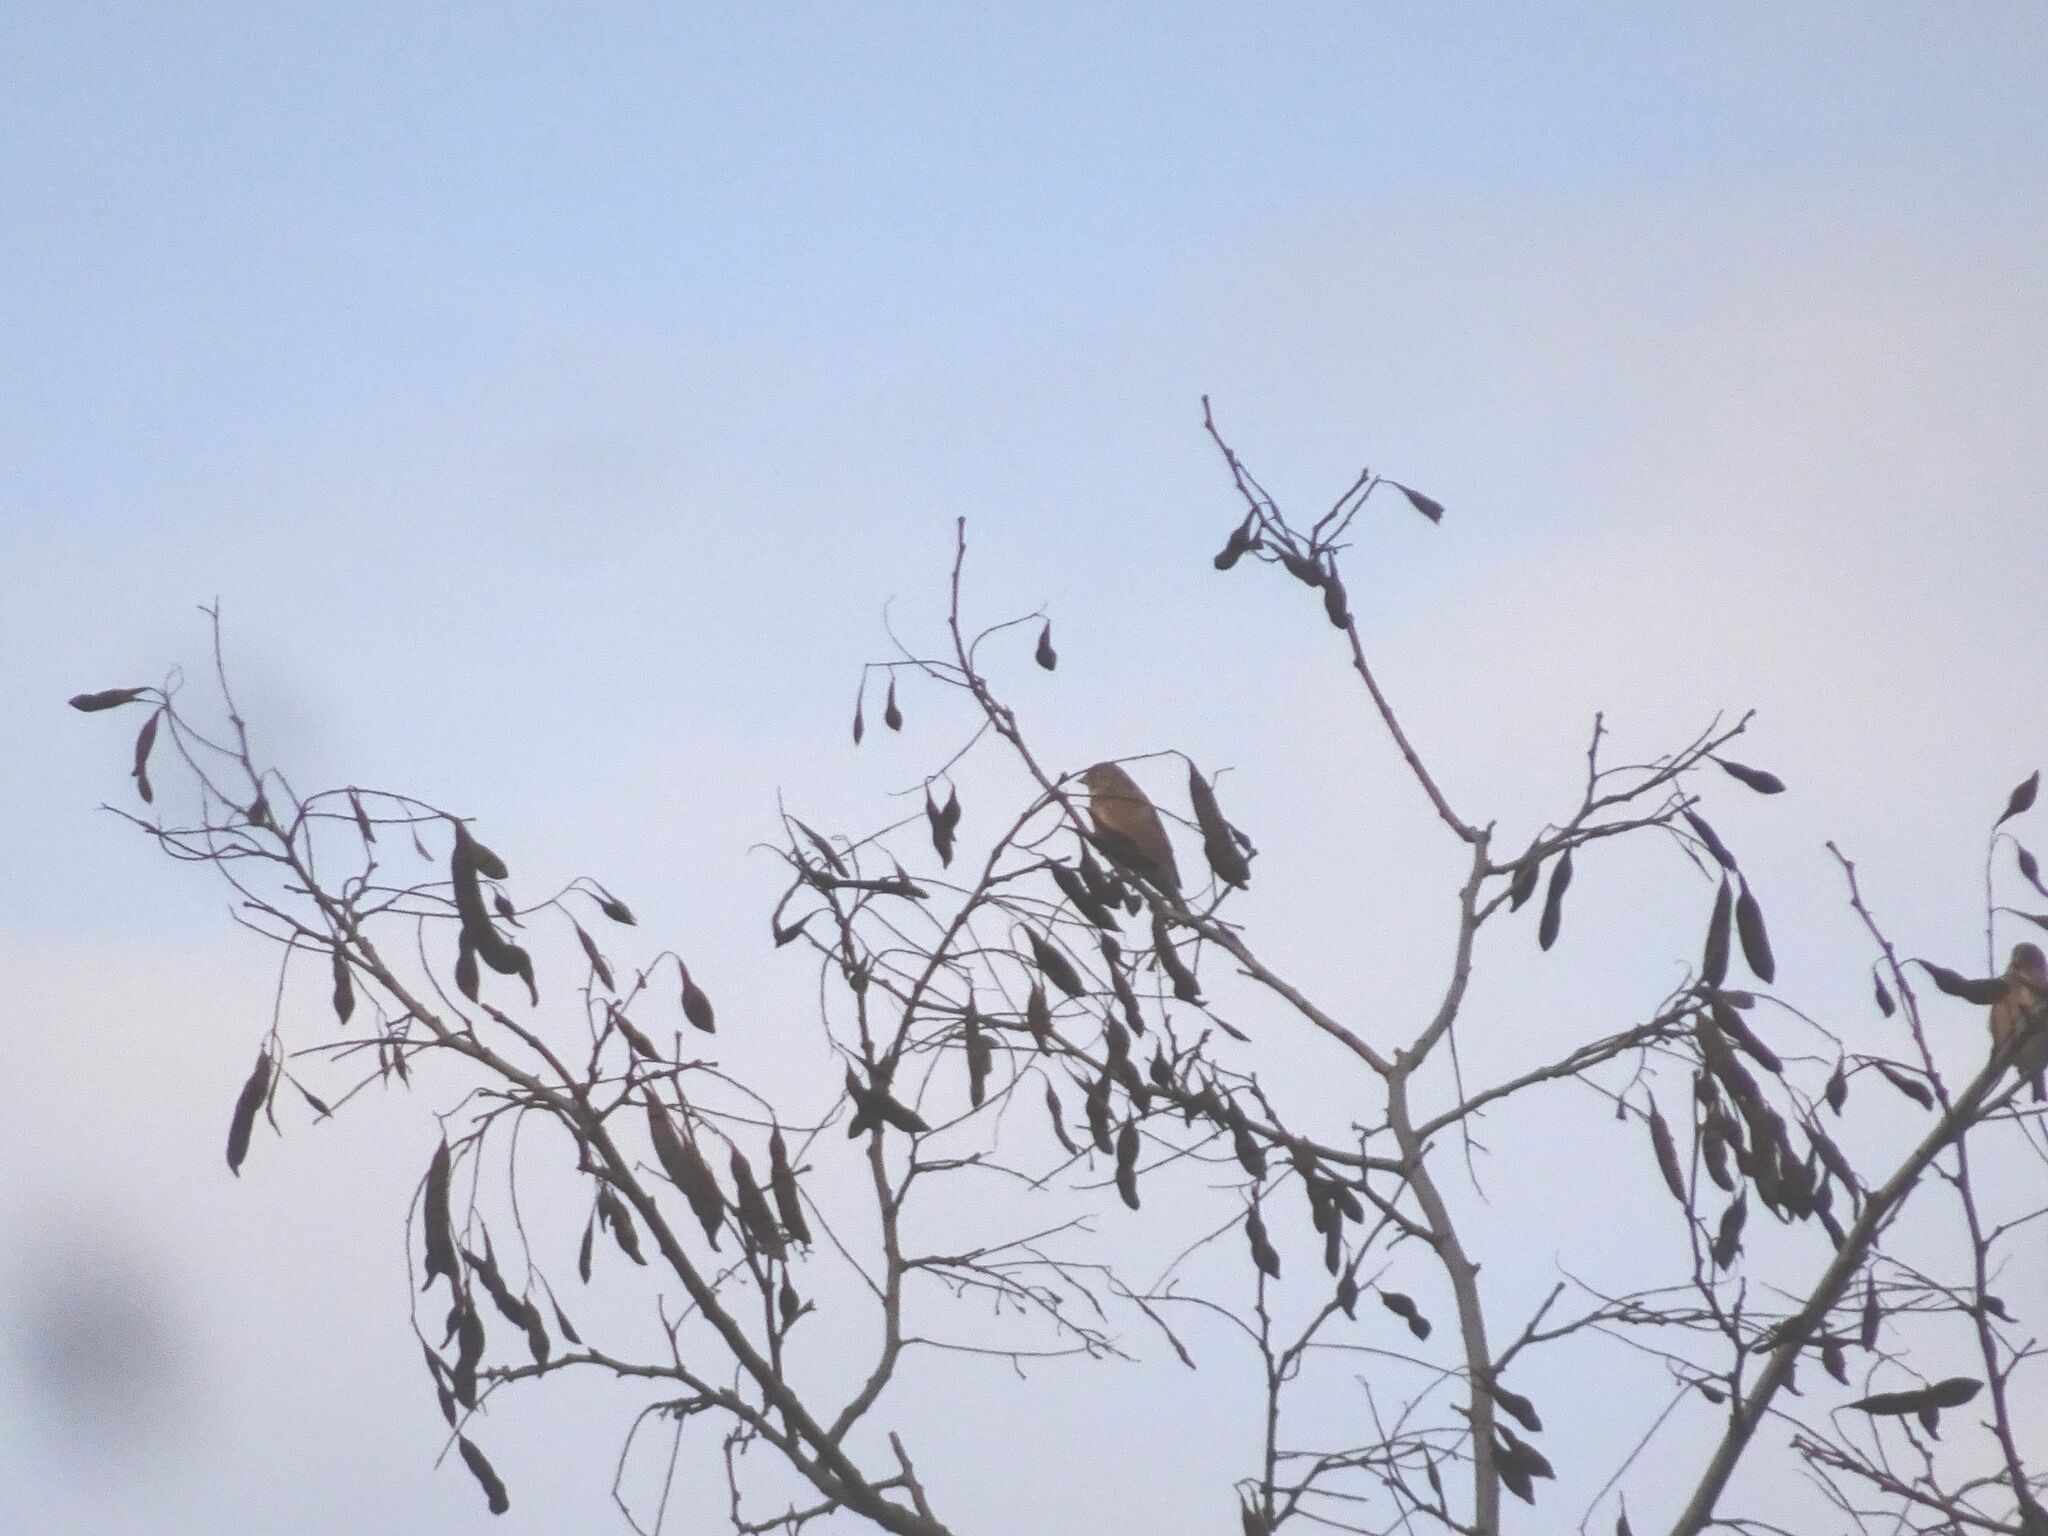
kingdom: Animalia
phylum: Chordata
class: Aves
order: Passeriformes
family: Fringillidae
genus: Linaria
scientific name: Linaria cannabina
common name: Common linnet
